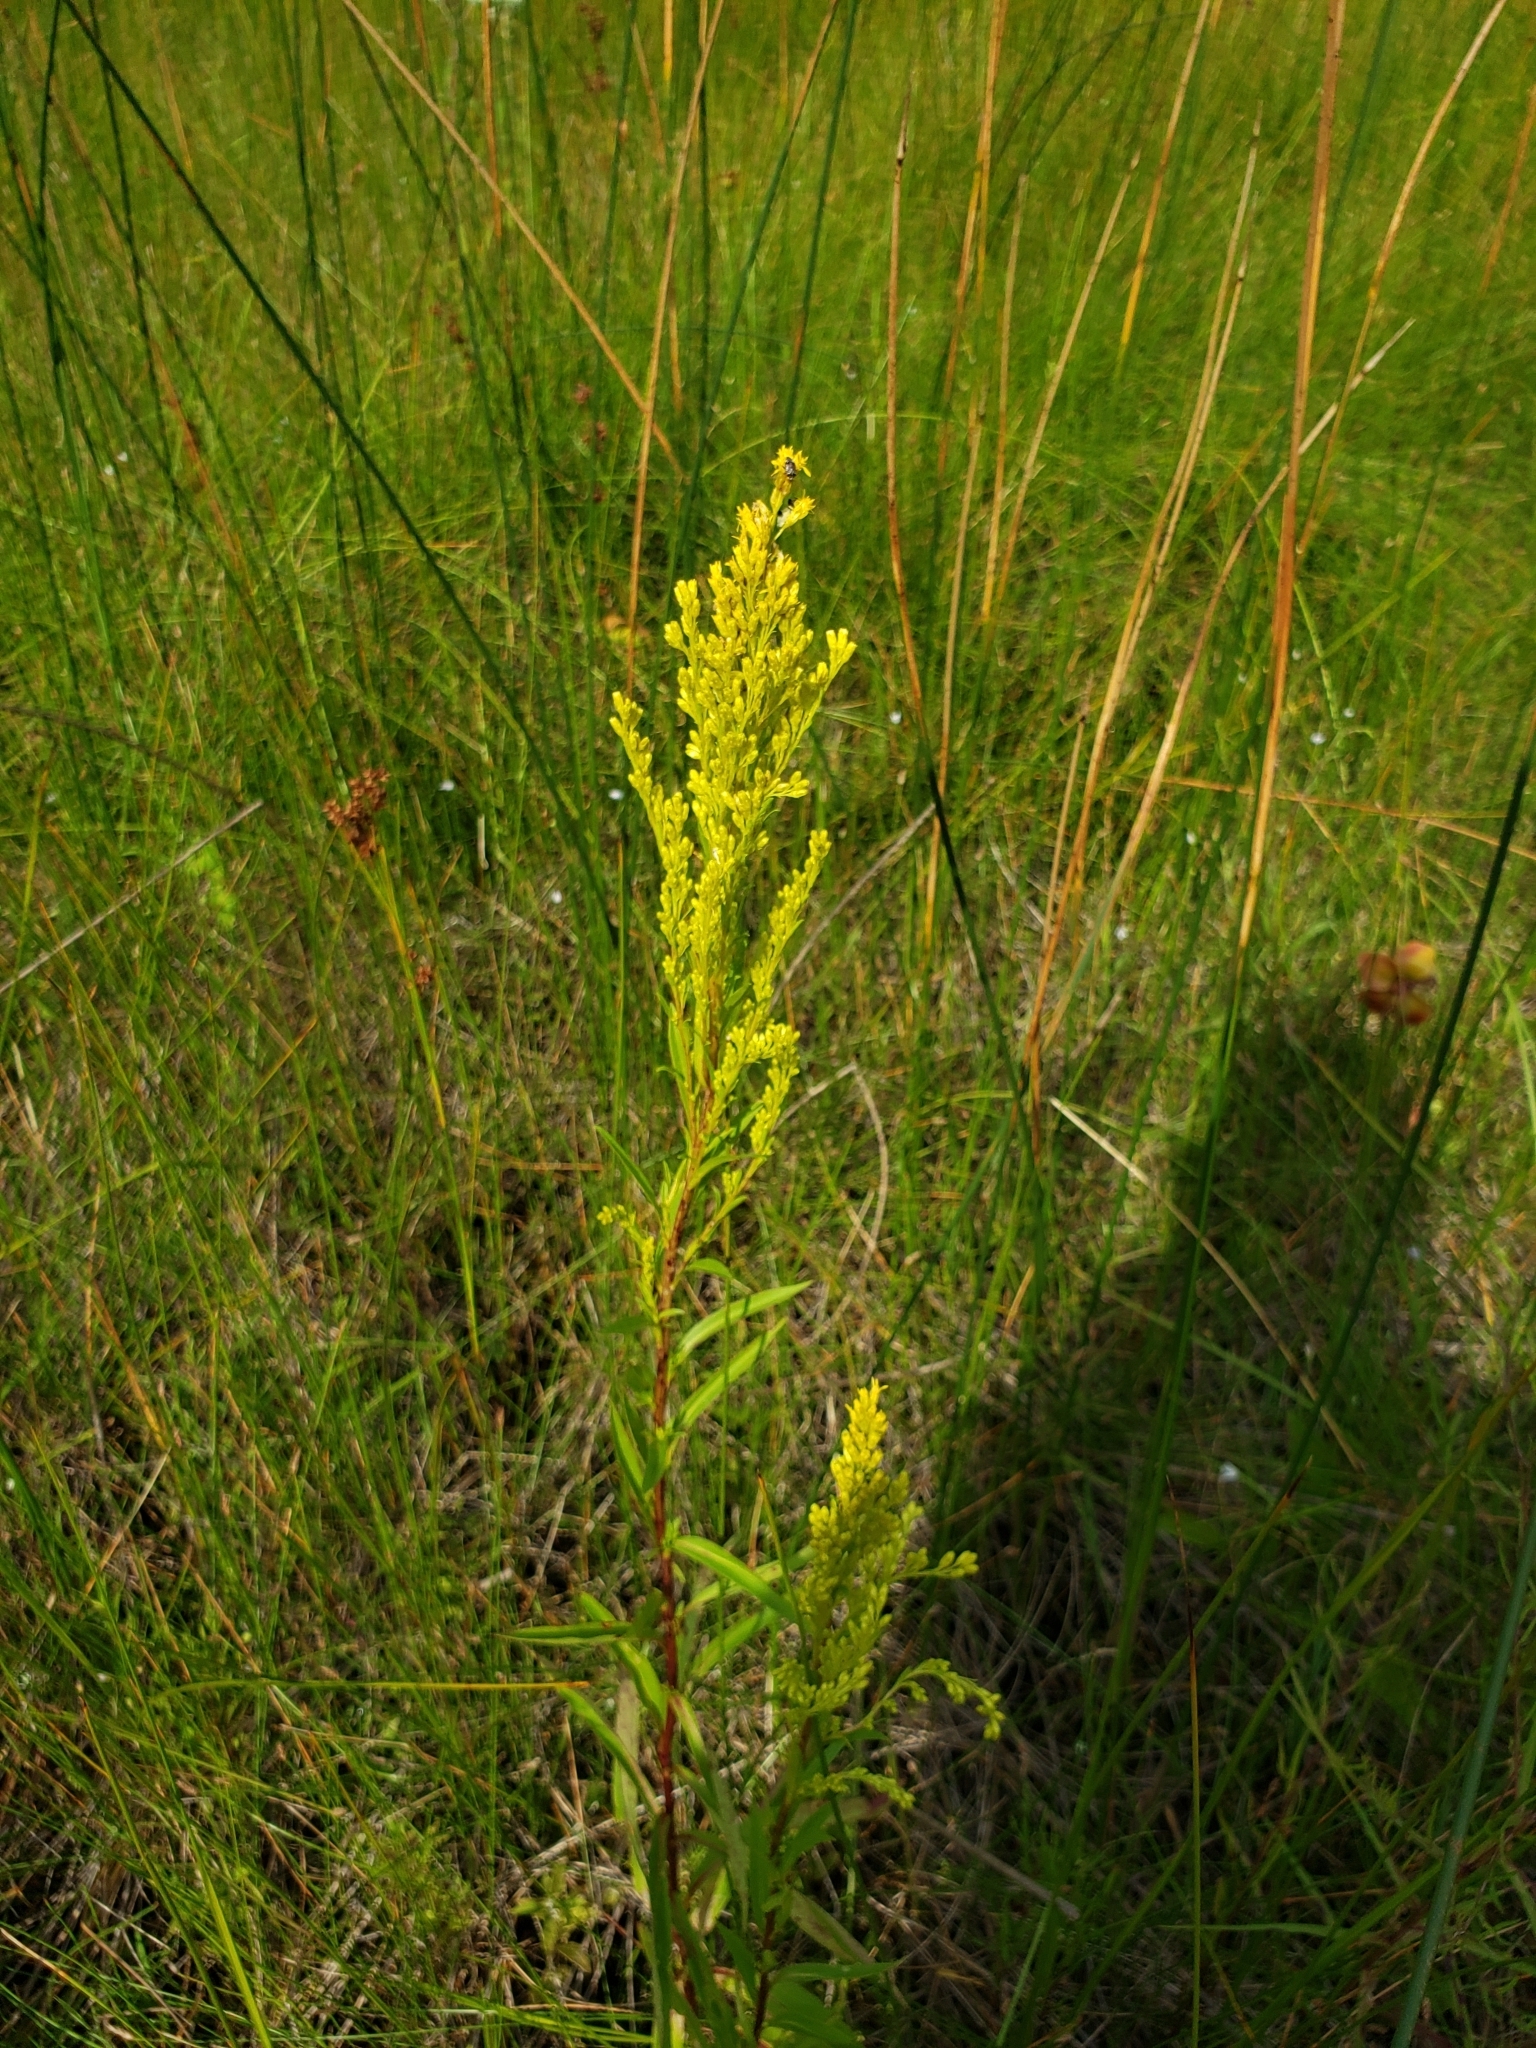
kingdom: Plantae
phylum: Tracheophyta
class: Magnoliopsida
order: Asterales
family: Asteraceae
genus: Solidago
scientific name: Solidago uliginosa
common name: Bog goldenrod
